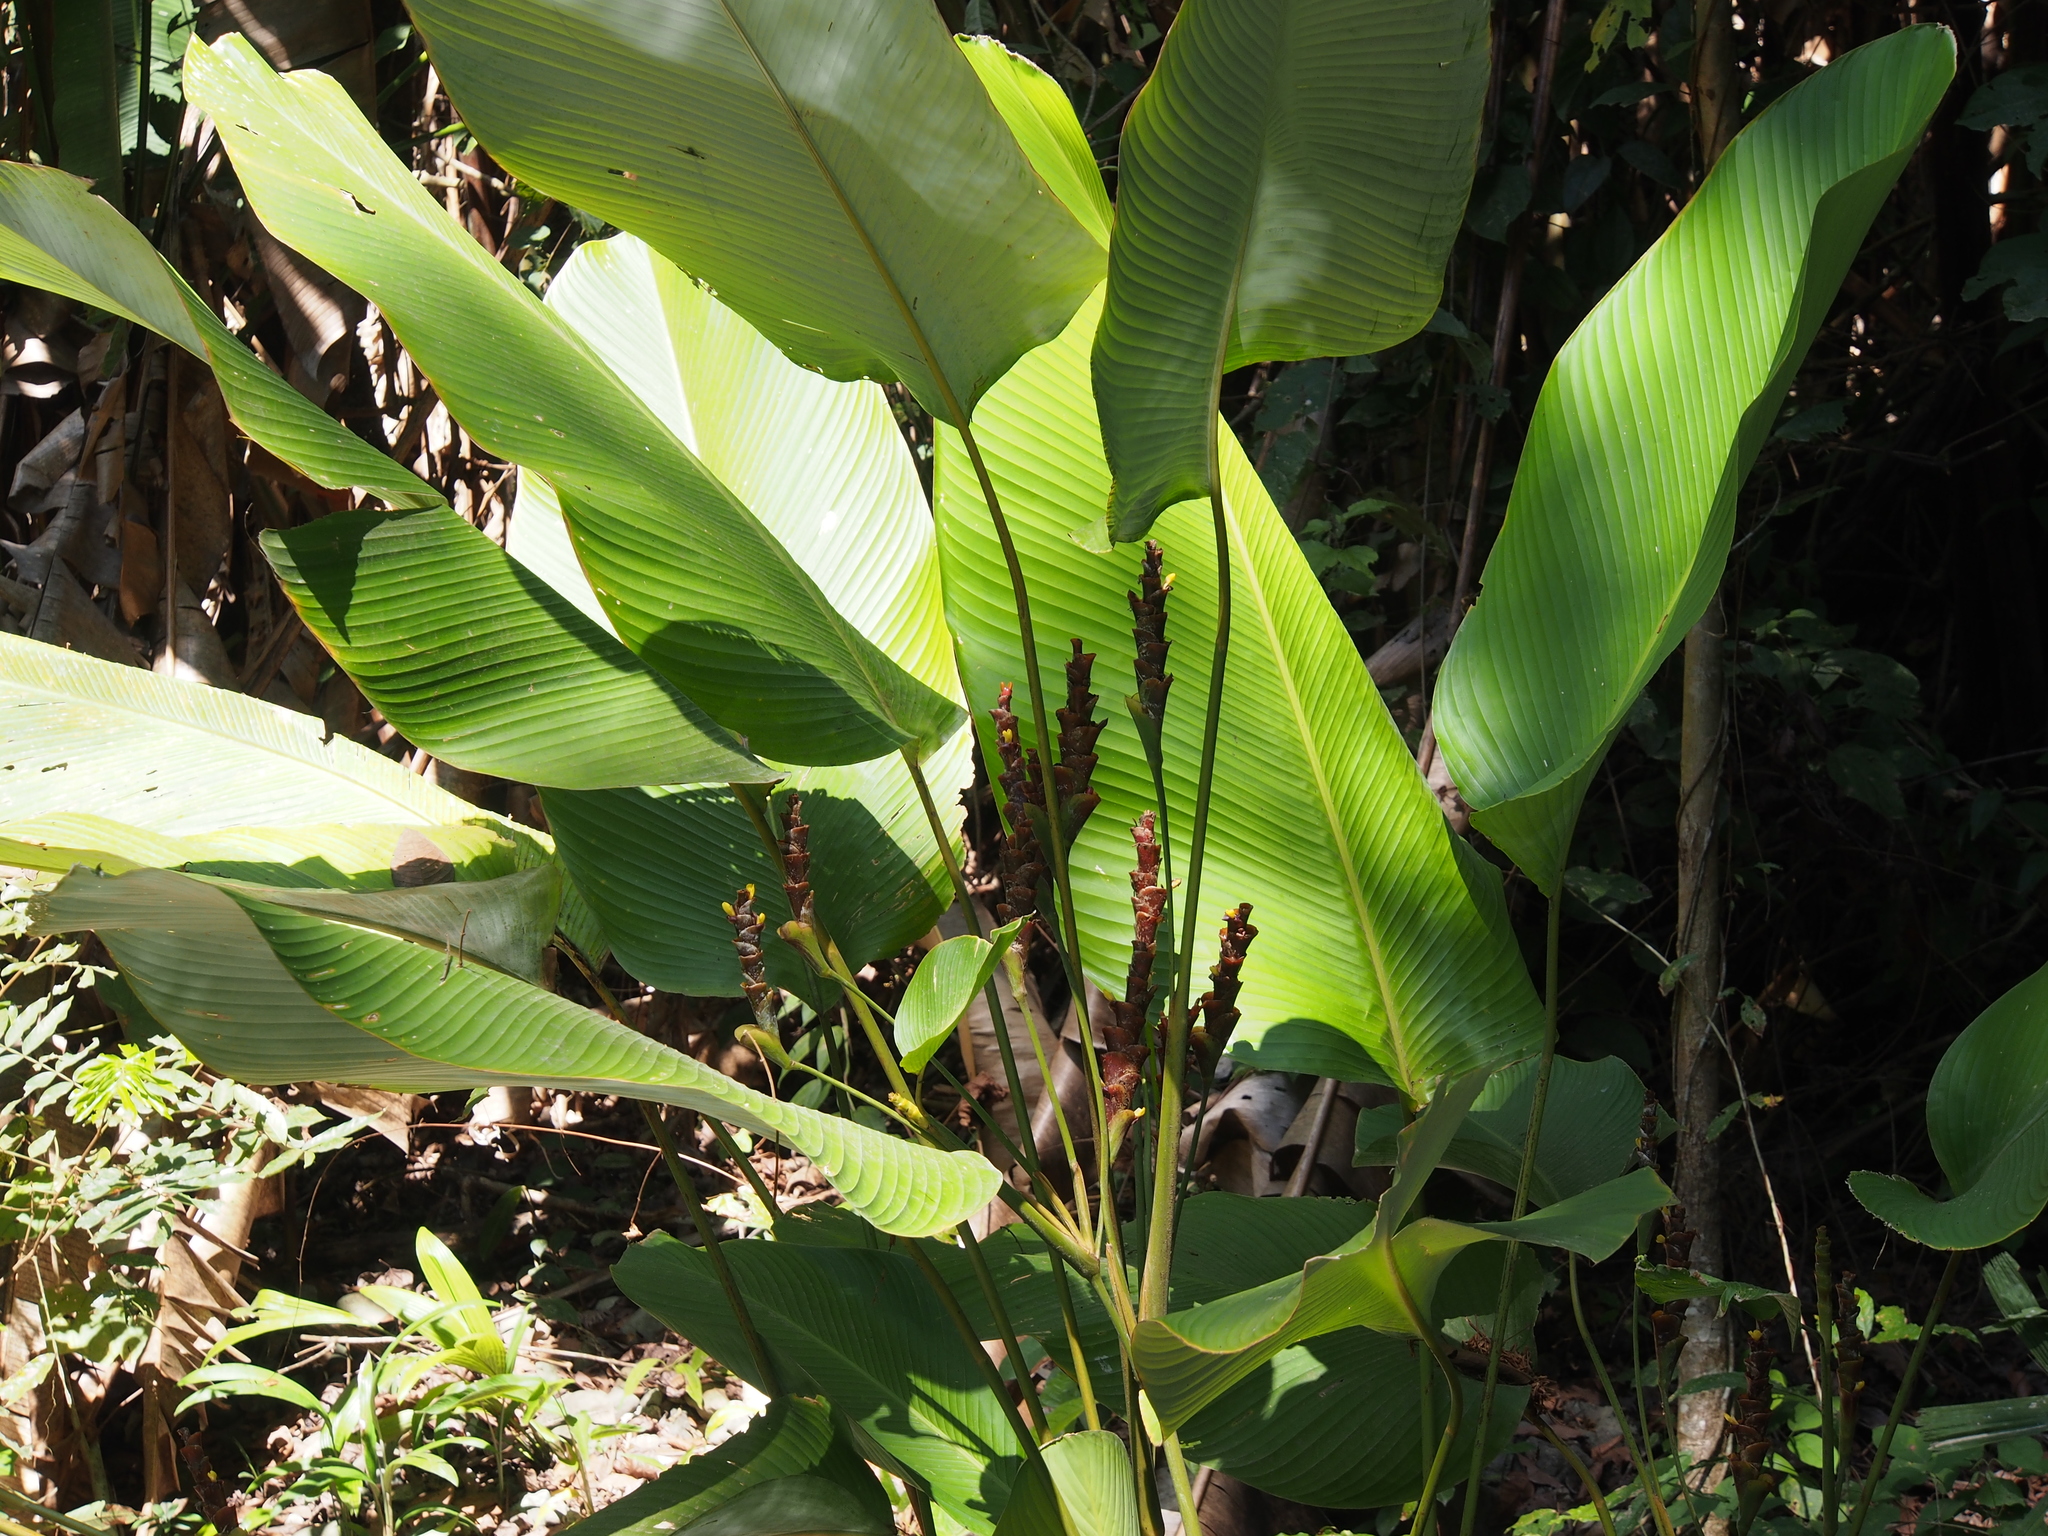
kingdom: Plantae
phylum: Tracheophyta
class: Liliopsida
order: Zingiberales
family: Marantaceae
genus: Calathea
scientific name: Calathea lutea
